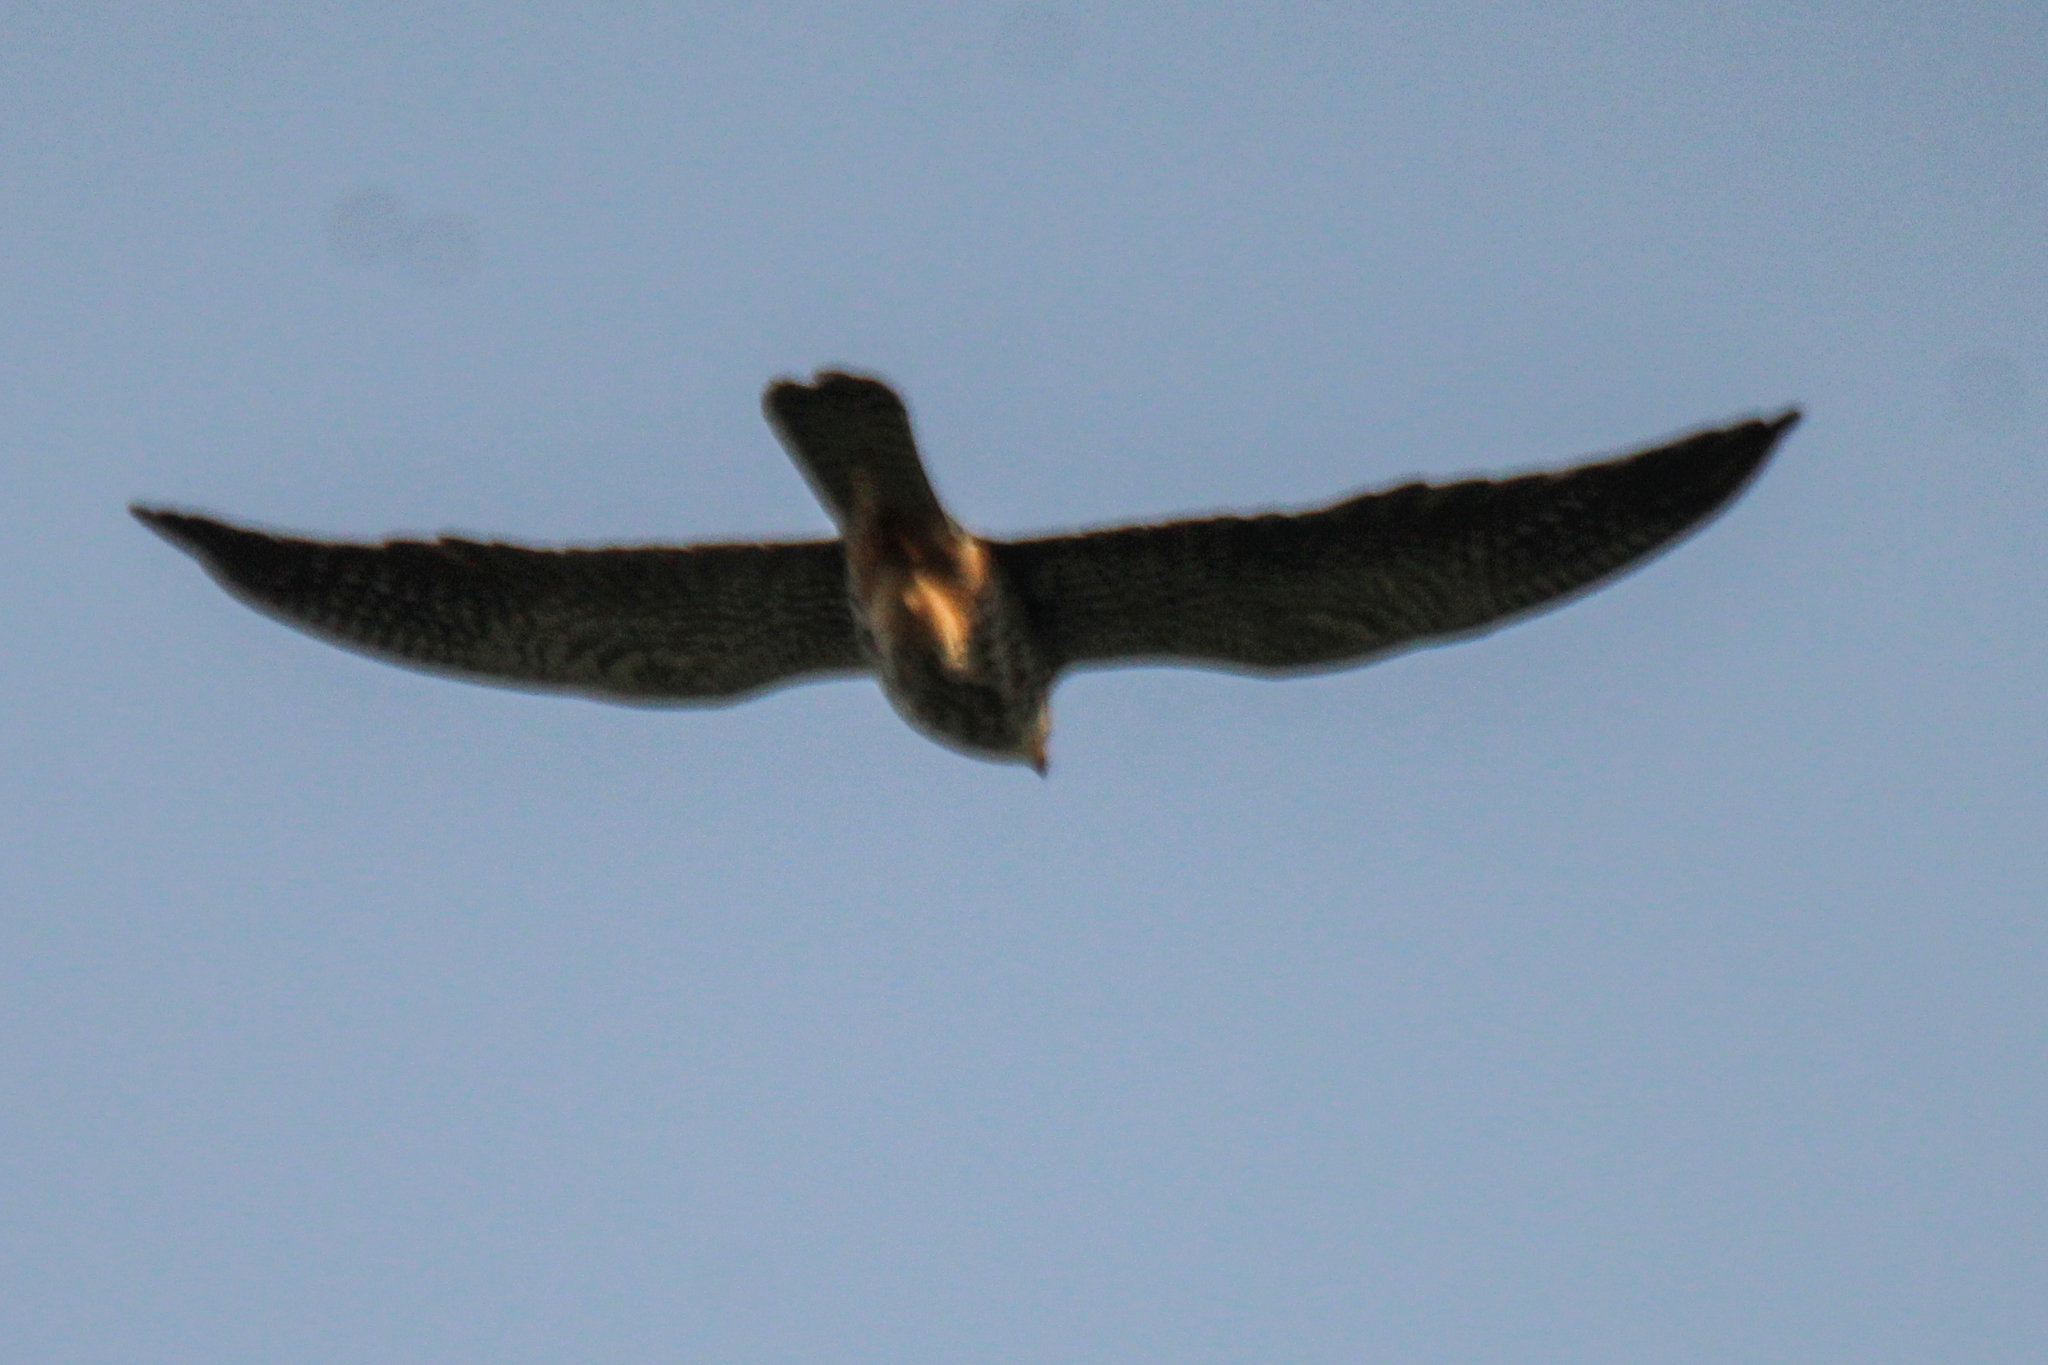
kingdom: Animalia
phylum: Chordata
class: Aves
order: Falconiformes
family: Falconidae
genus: Falco
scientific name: Falco amurensis
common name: Amur falcon
